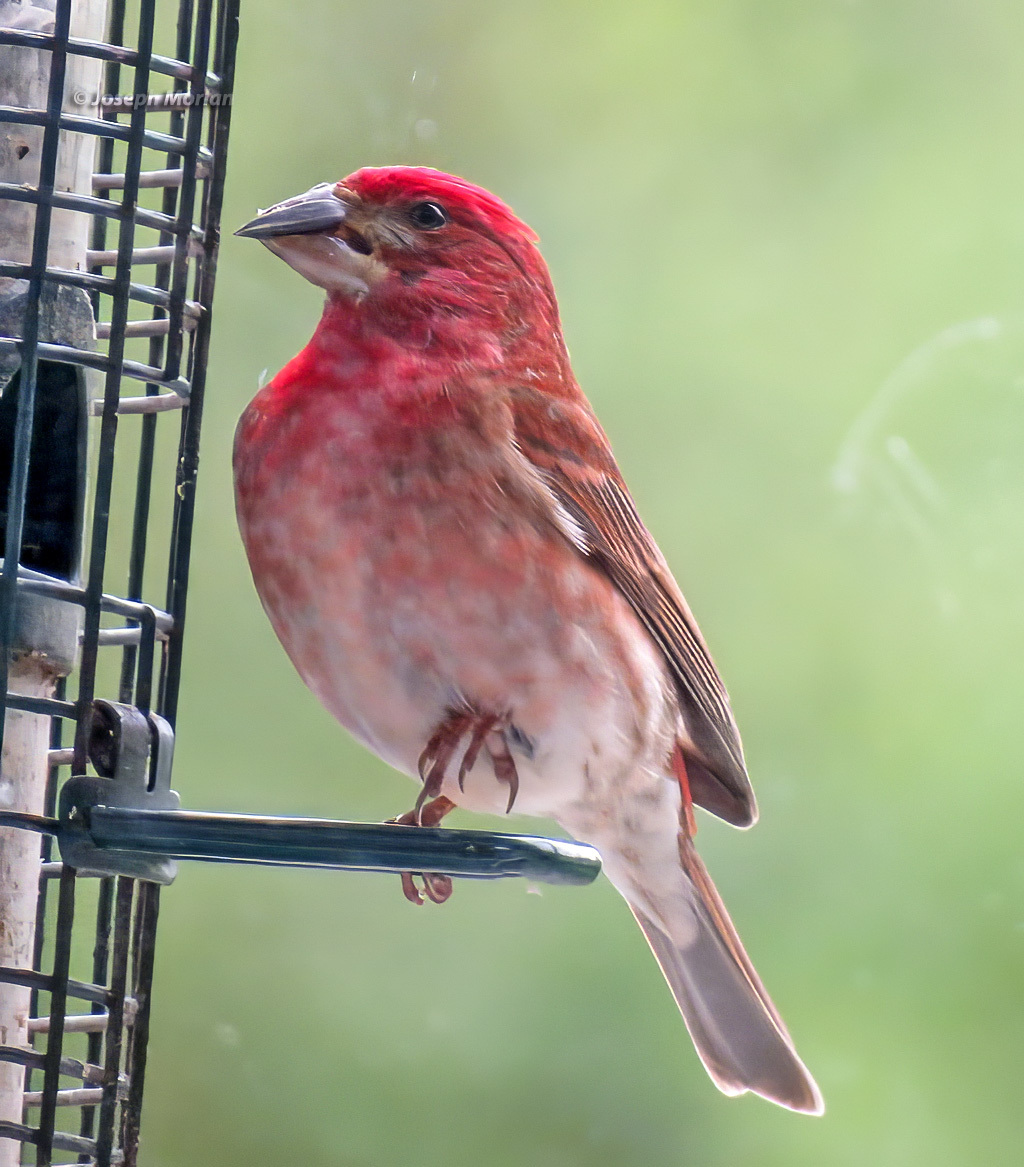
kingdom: Animalia
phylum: Chordata
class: Aves
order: Passeriformes
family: Fringillidae
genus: Haemorhous
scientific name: Haemorhous purpureus
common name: Purple finch
